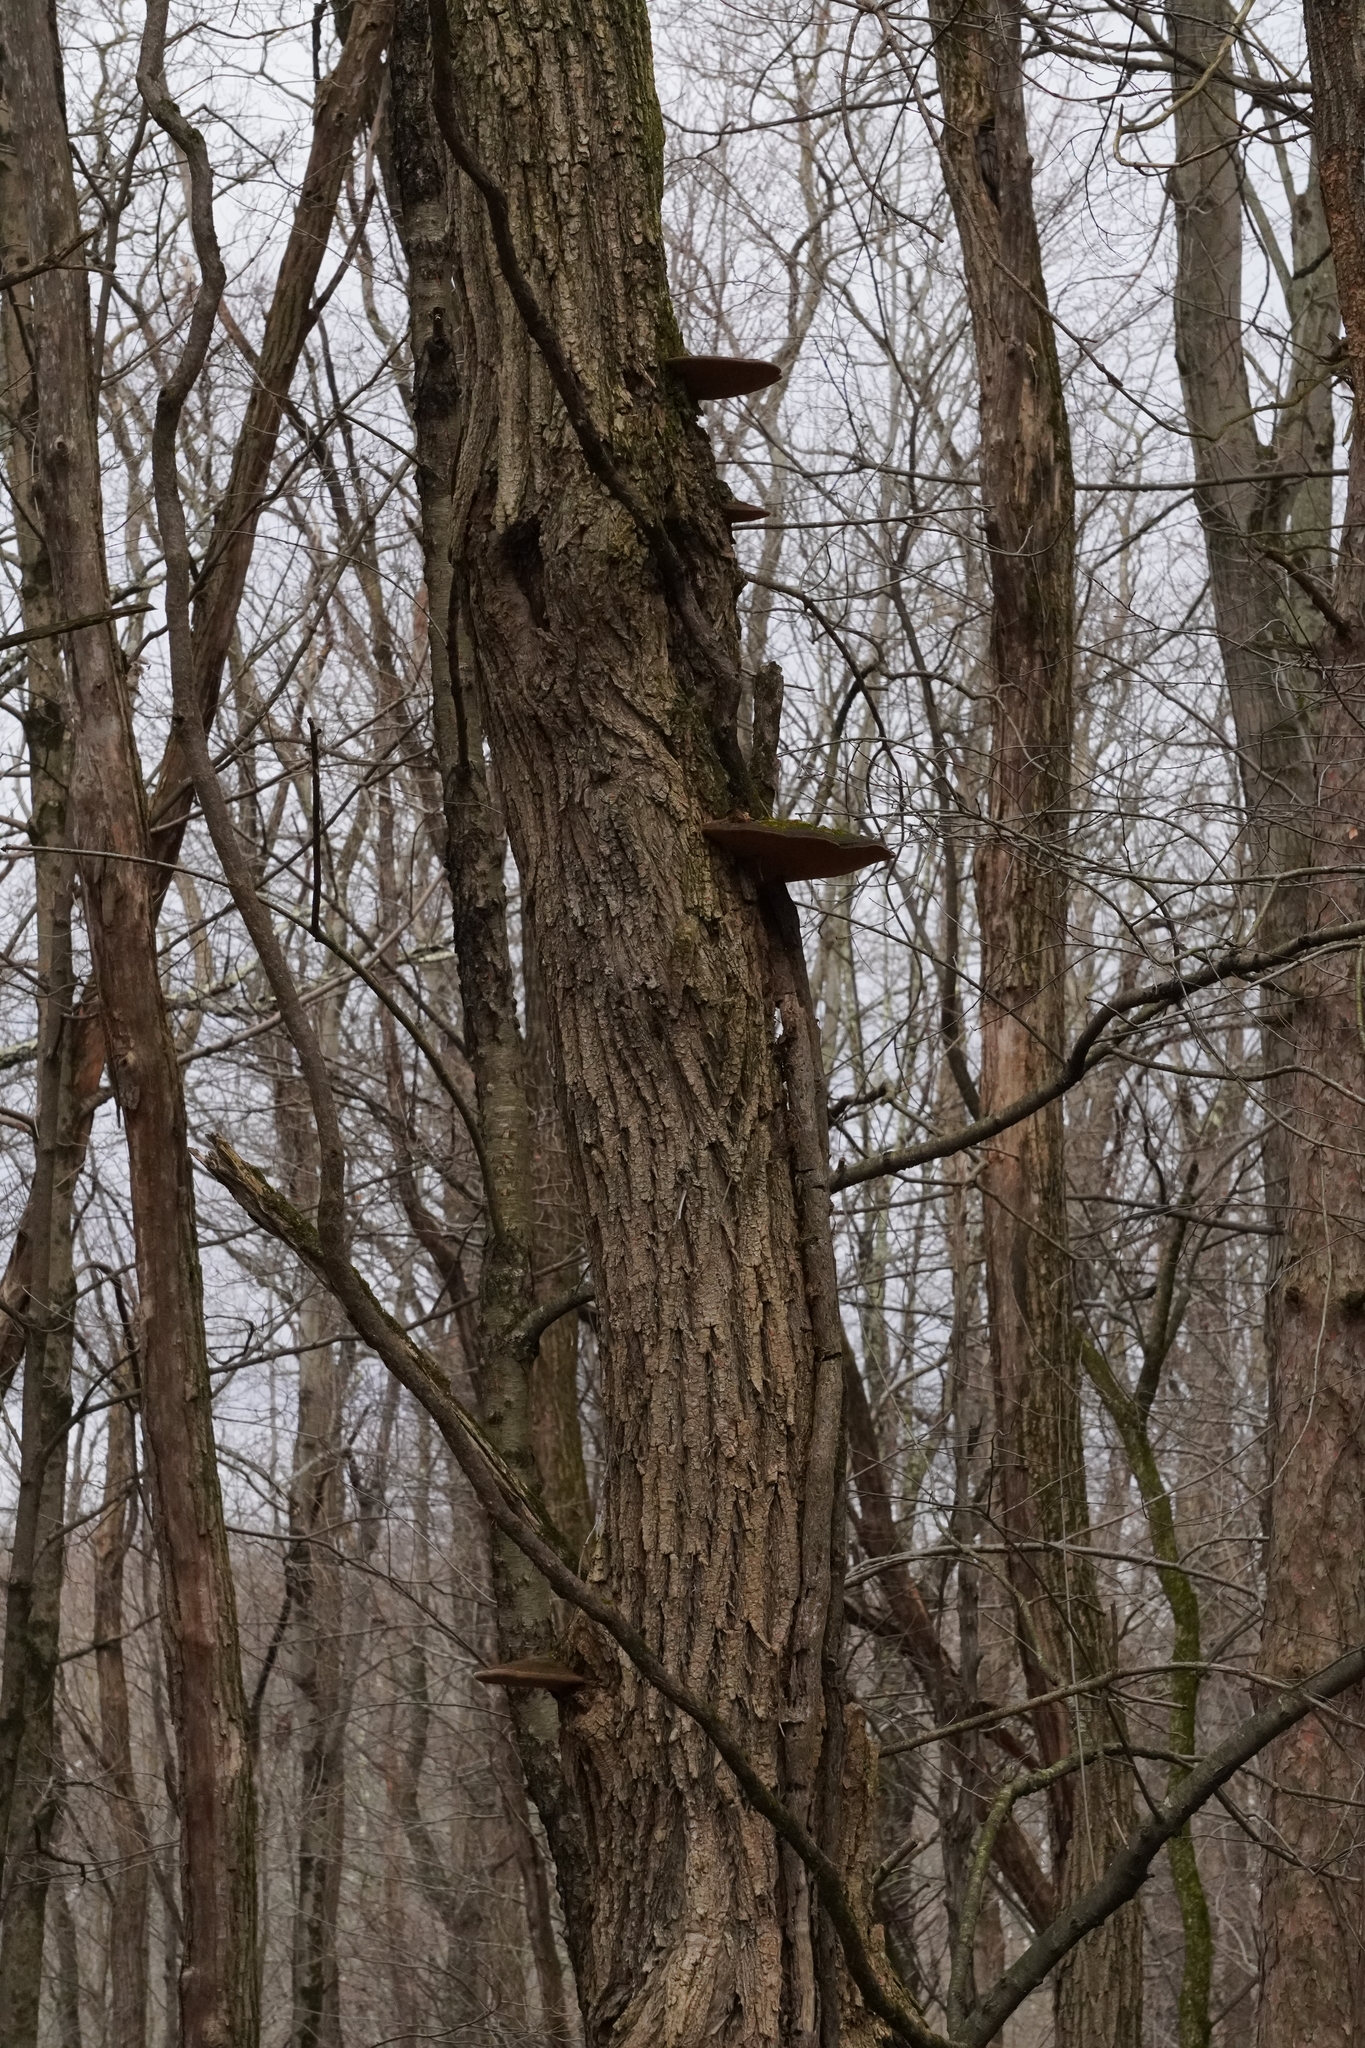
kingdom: Fungi
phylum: Basidiomycota
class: Agaricomycetes
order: Hymenochaetales
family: Hymenochaetaceae
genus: Phellinus
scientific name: Phellinus robiniae
